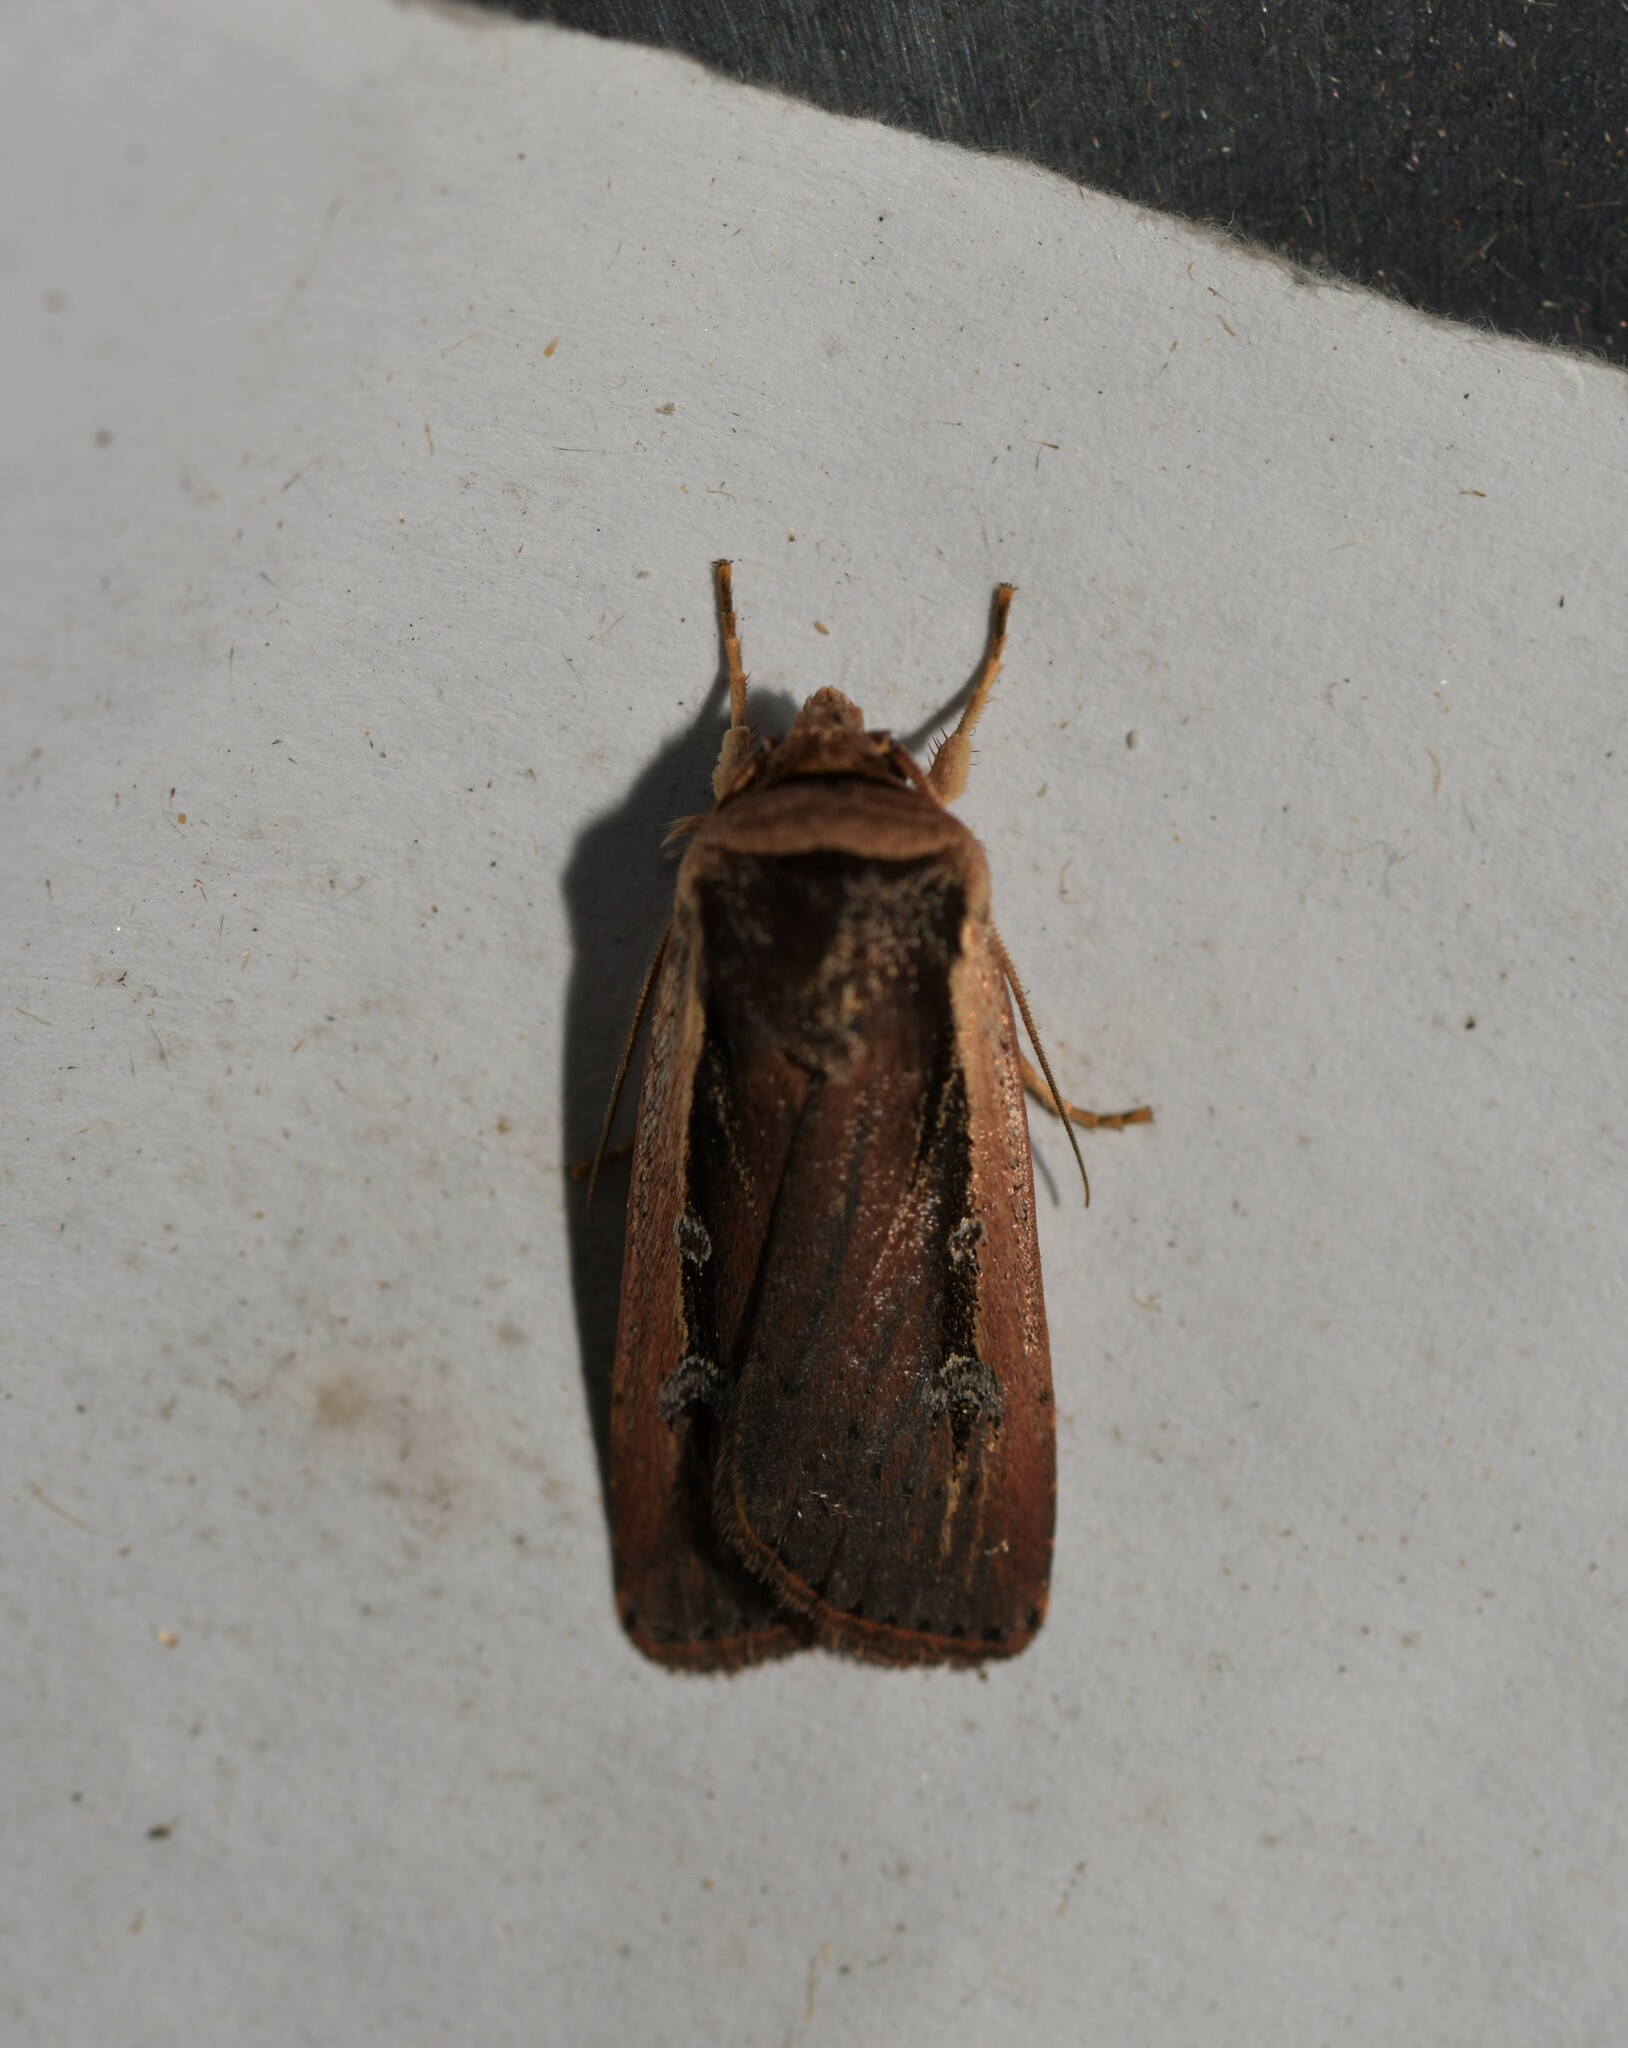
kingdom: Animalia
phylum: Arthropoda
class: Insecta
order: Lepidoptera
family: Noctuidae
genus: Ochropleura
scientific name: Ochropleura leucogaster
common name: Radford's flame shoulder
